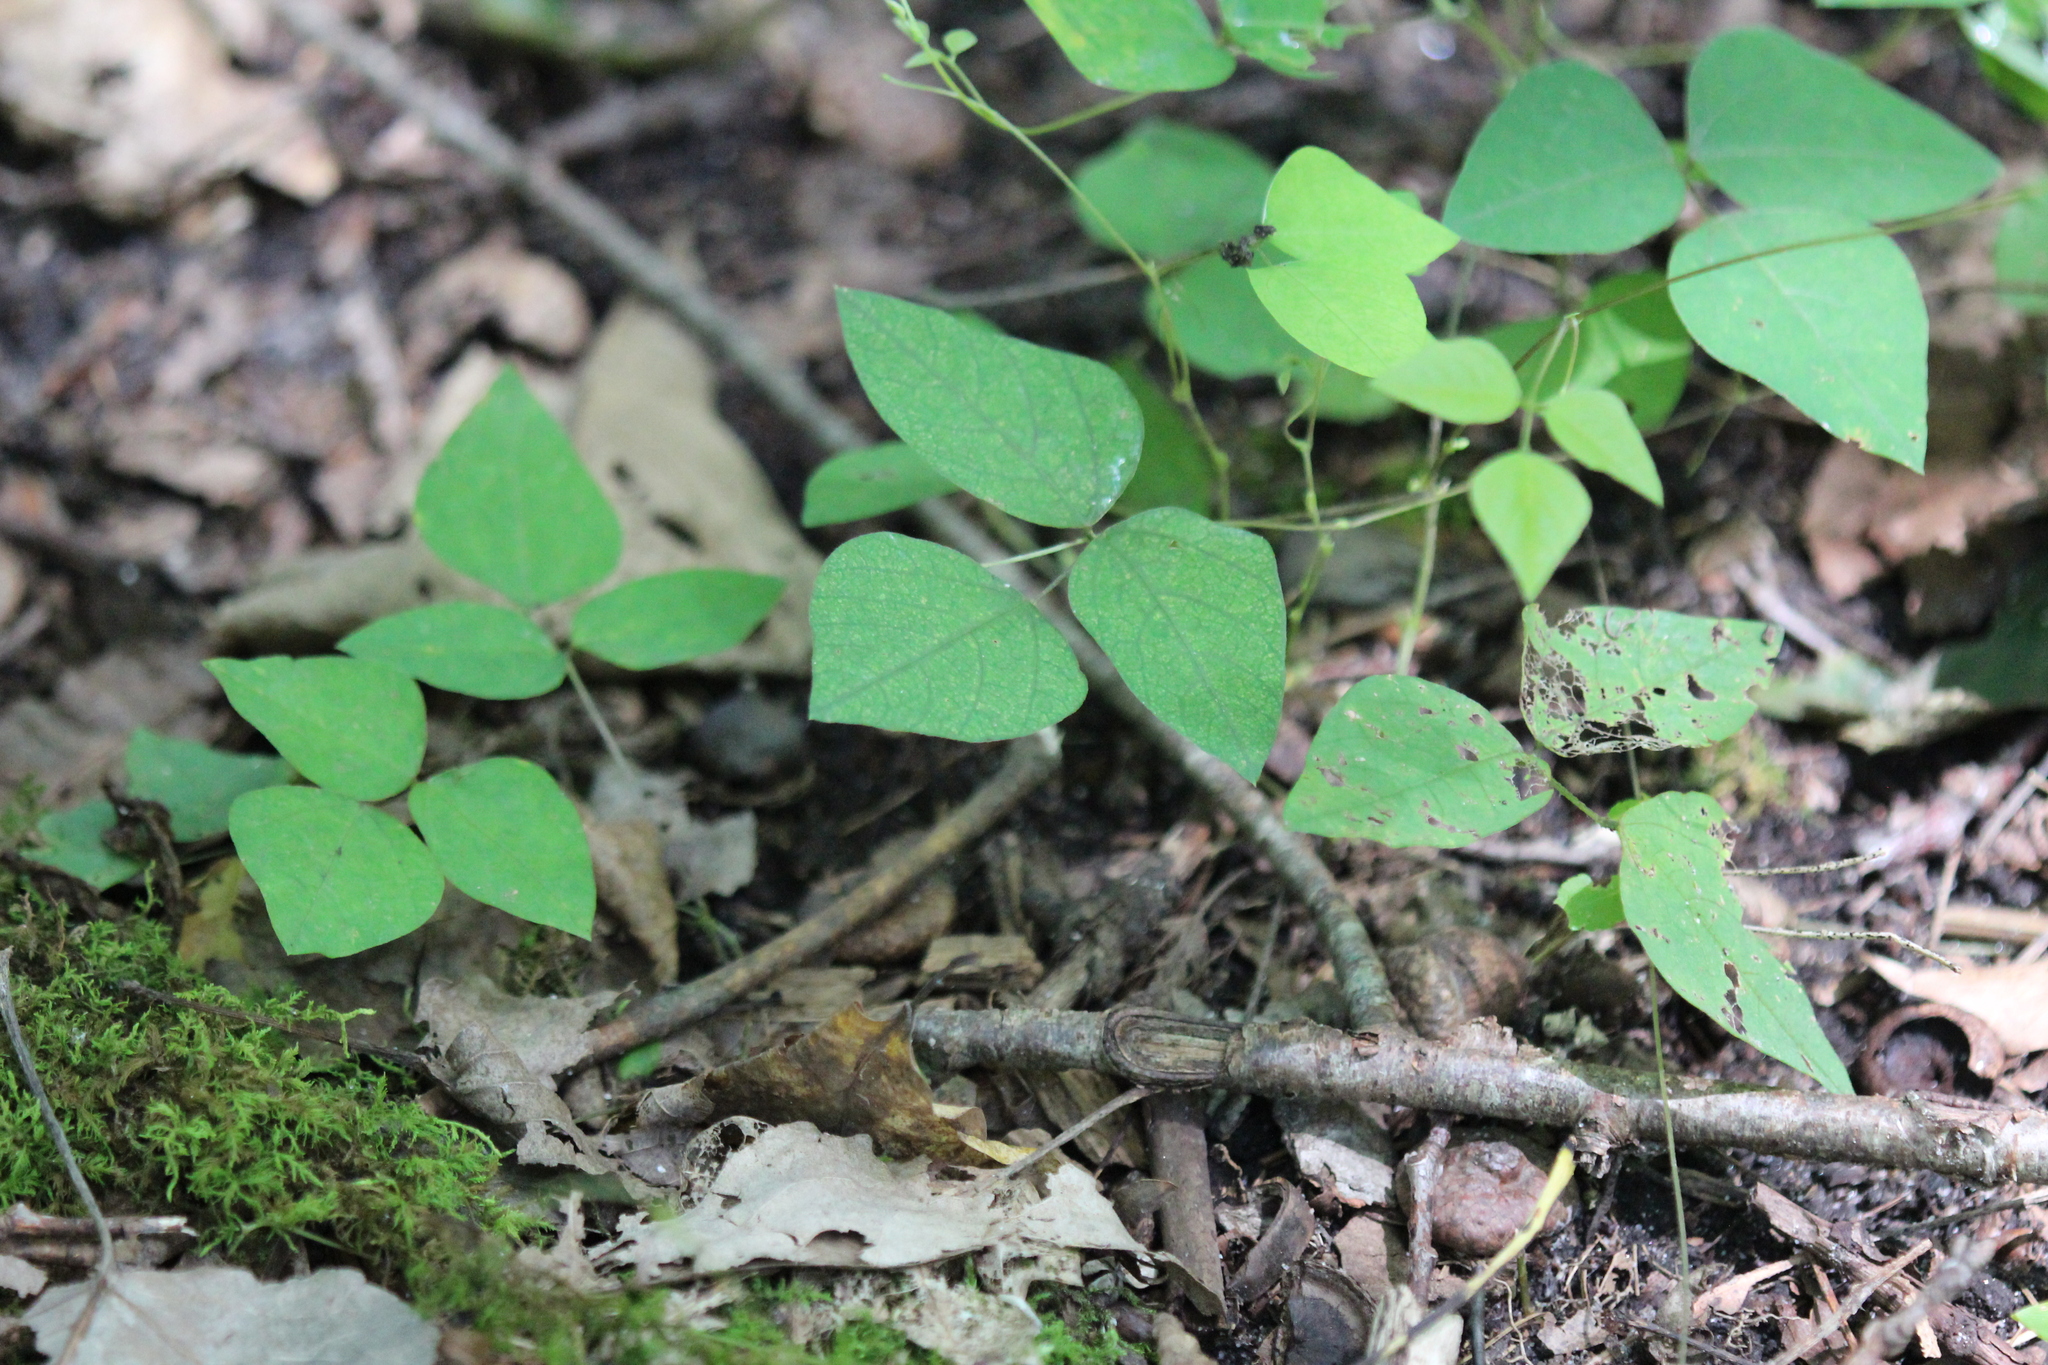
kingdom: Plantae
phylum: Tracheophyta
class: Magnoliopsida
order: Fabales
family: Fabaceae
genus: Amphicarpaea
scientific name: Amphicarpaea bracteata
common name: American hog peanut
